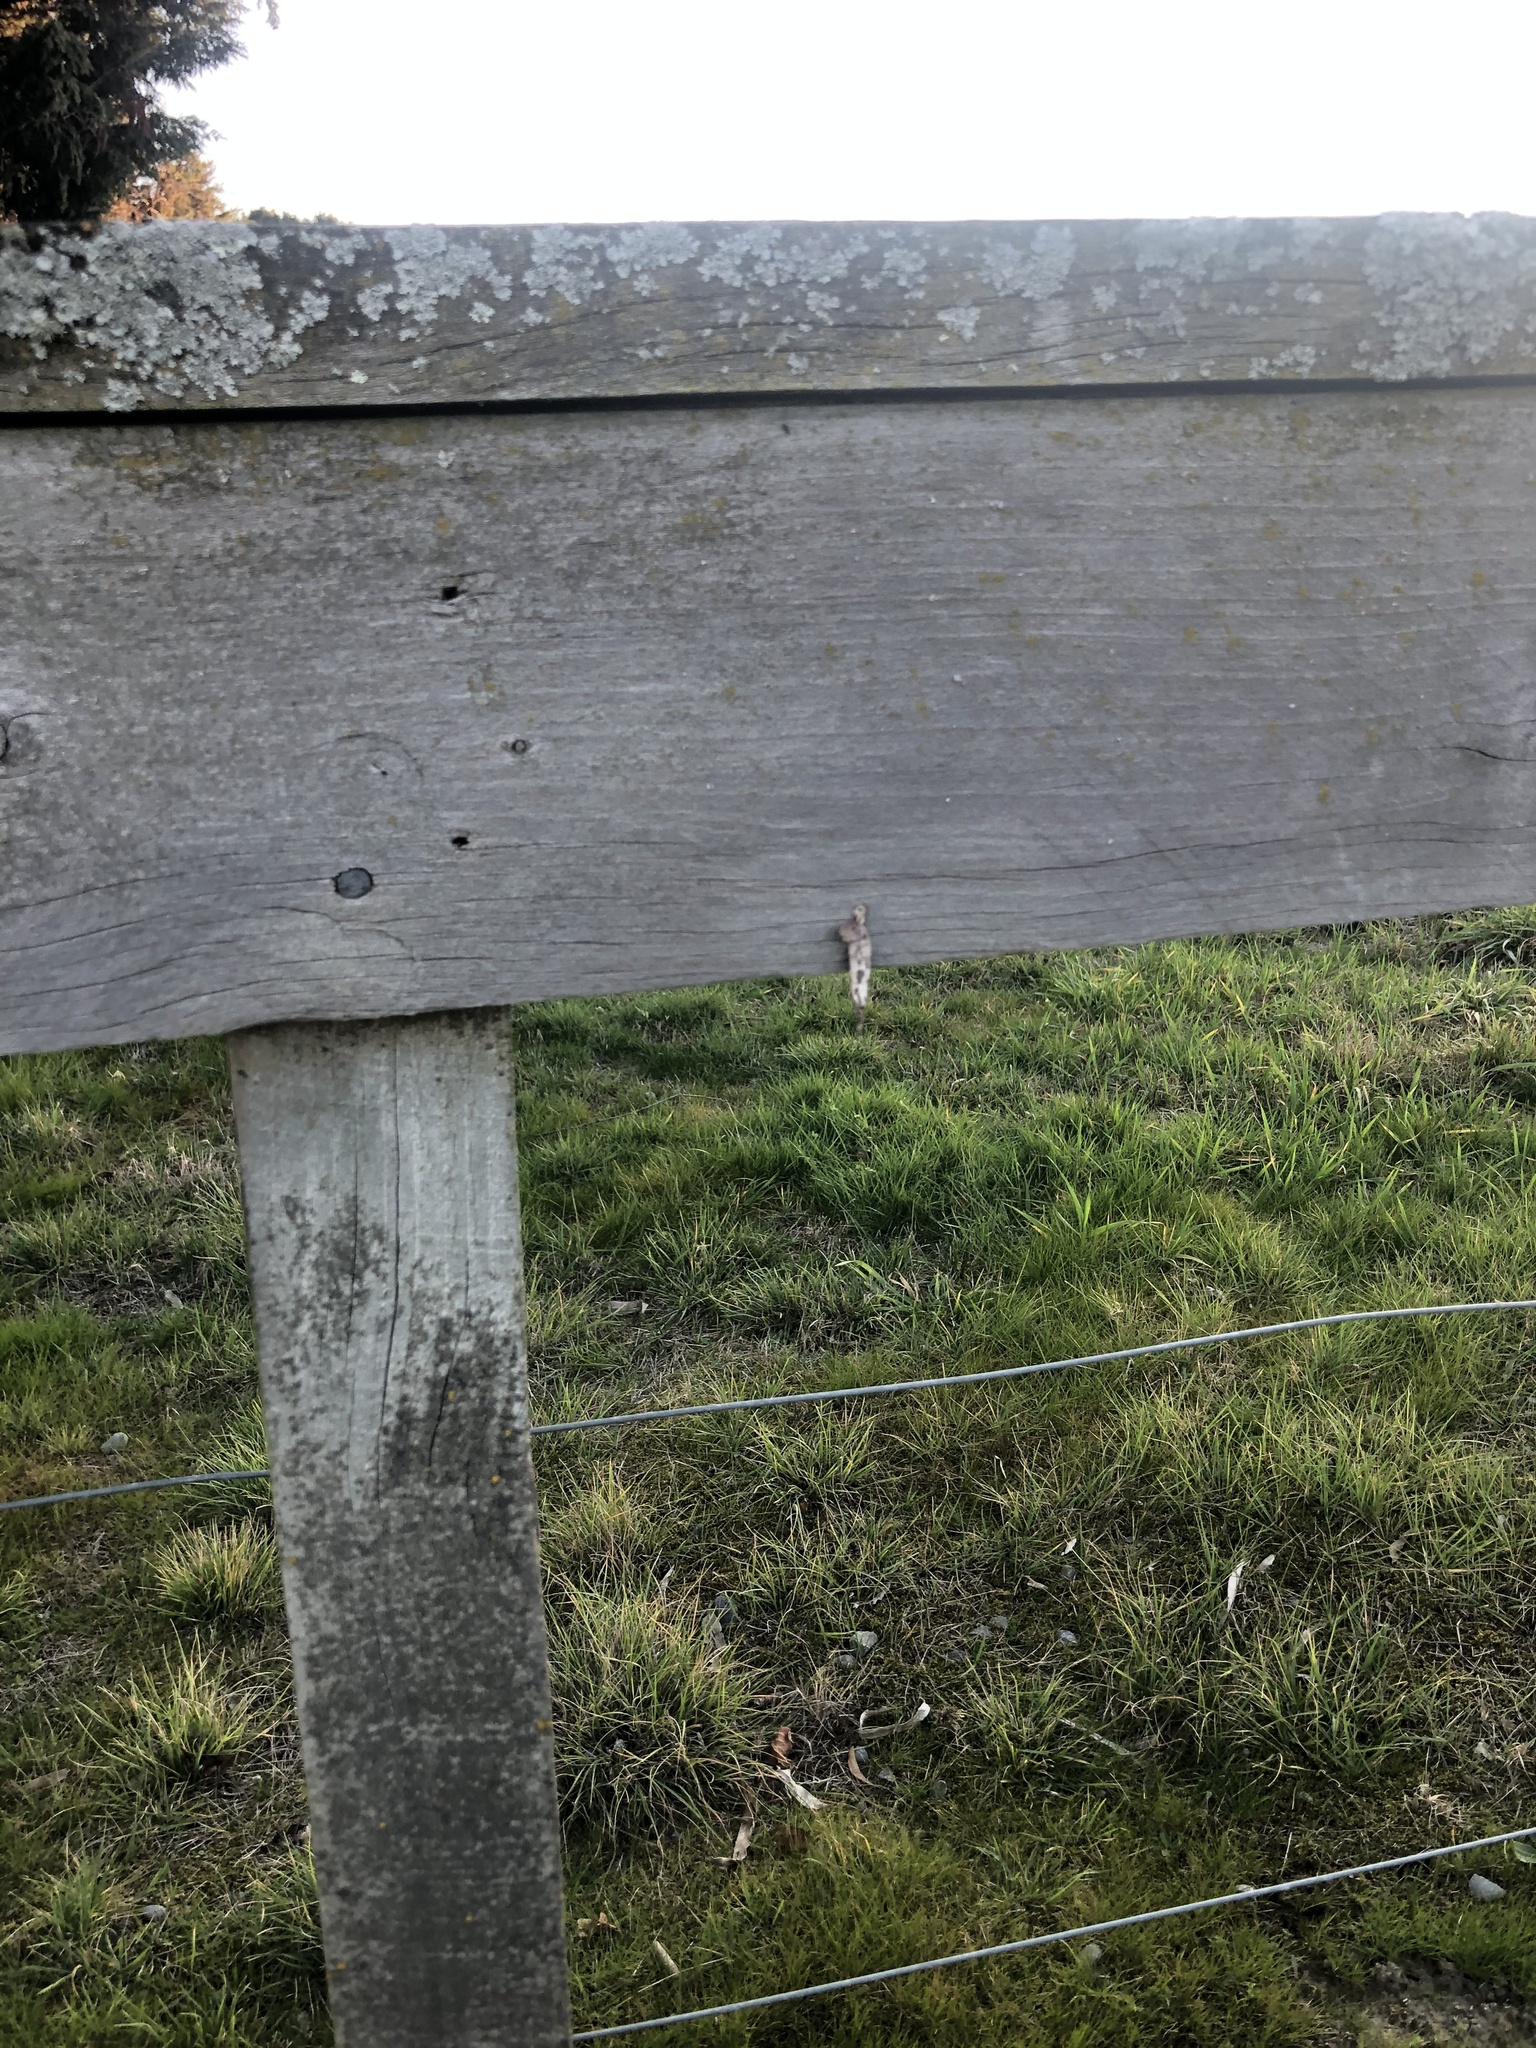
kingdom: Animalia
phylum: Arthropoda
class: Insecta
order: Lepidoptera
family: Psychidae
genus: Liothula
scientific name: Liothula omnivora
